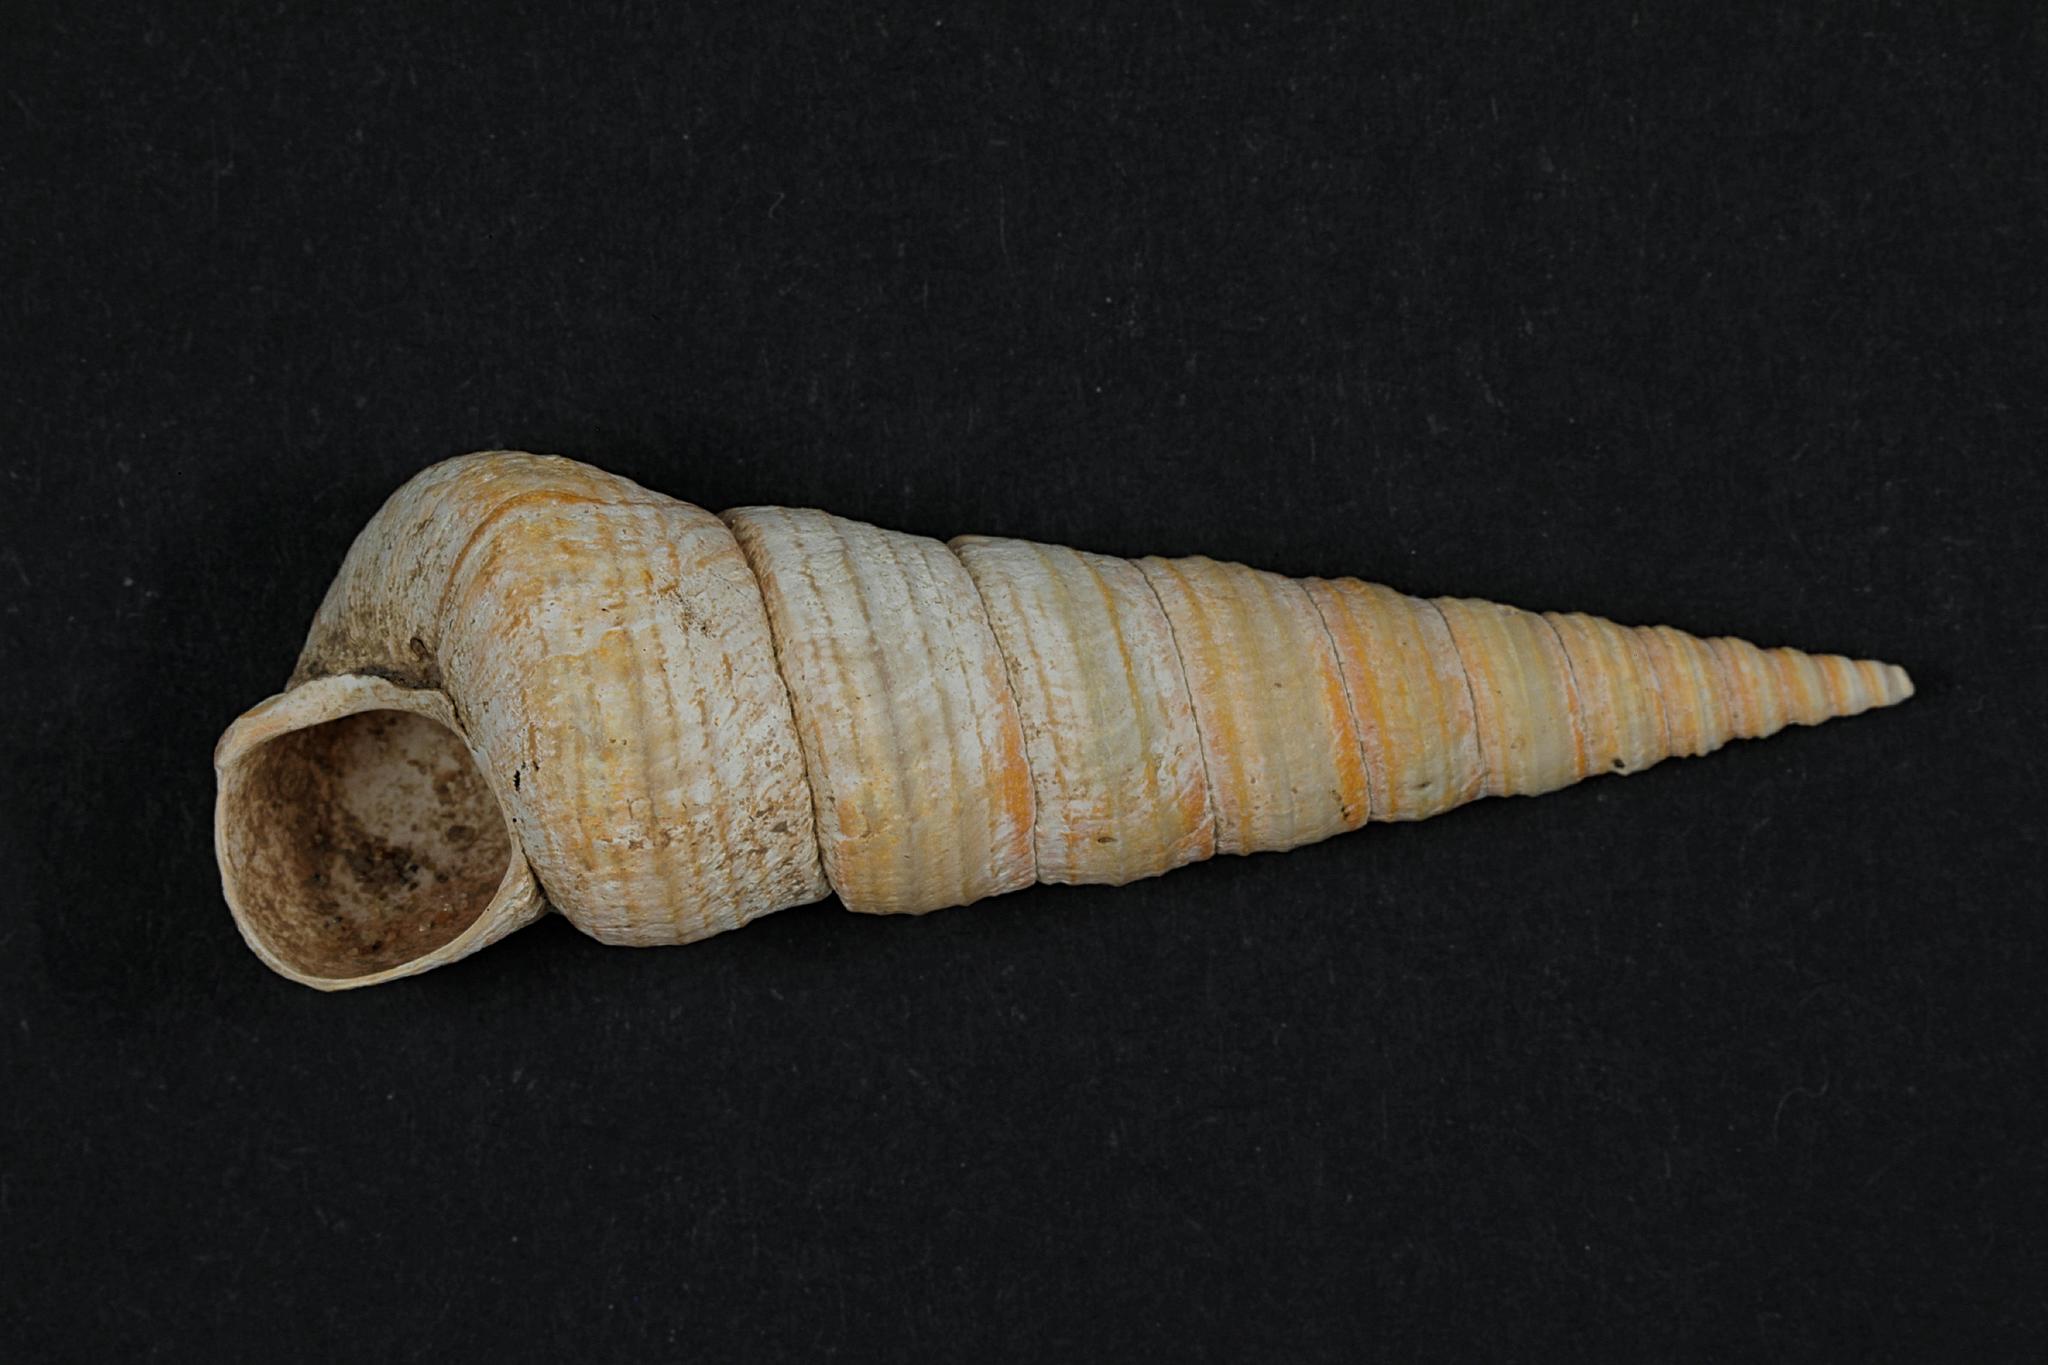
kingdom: Animalia
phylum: Mollusca
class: Gastropoda
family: Turritellidae
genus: Turritellinella
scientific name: Turritellinella tricarinata
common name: Auger shell
